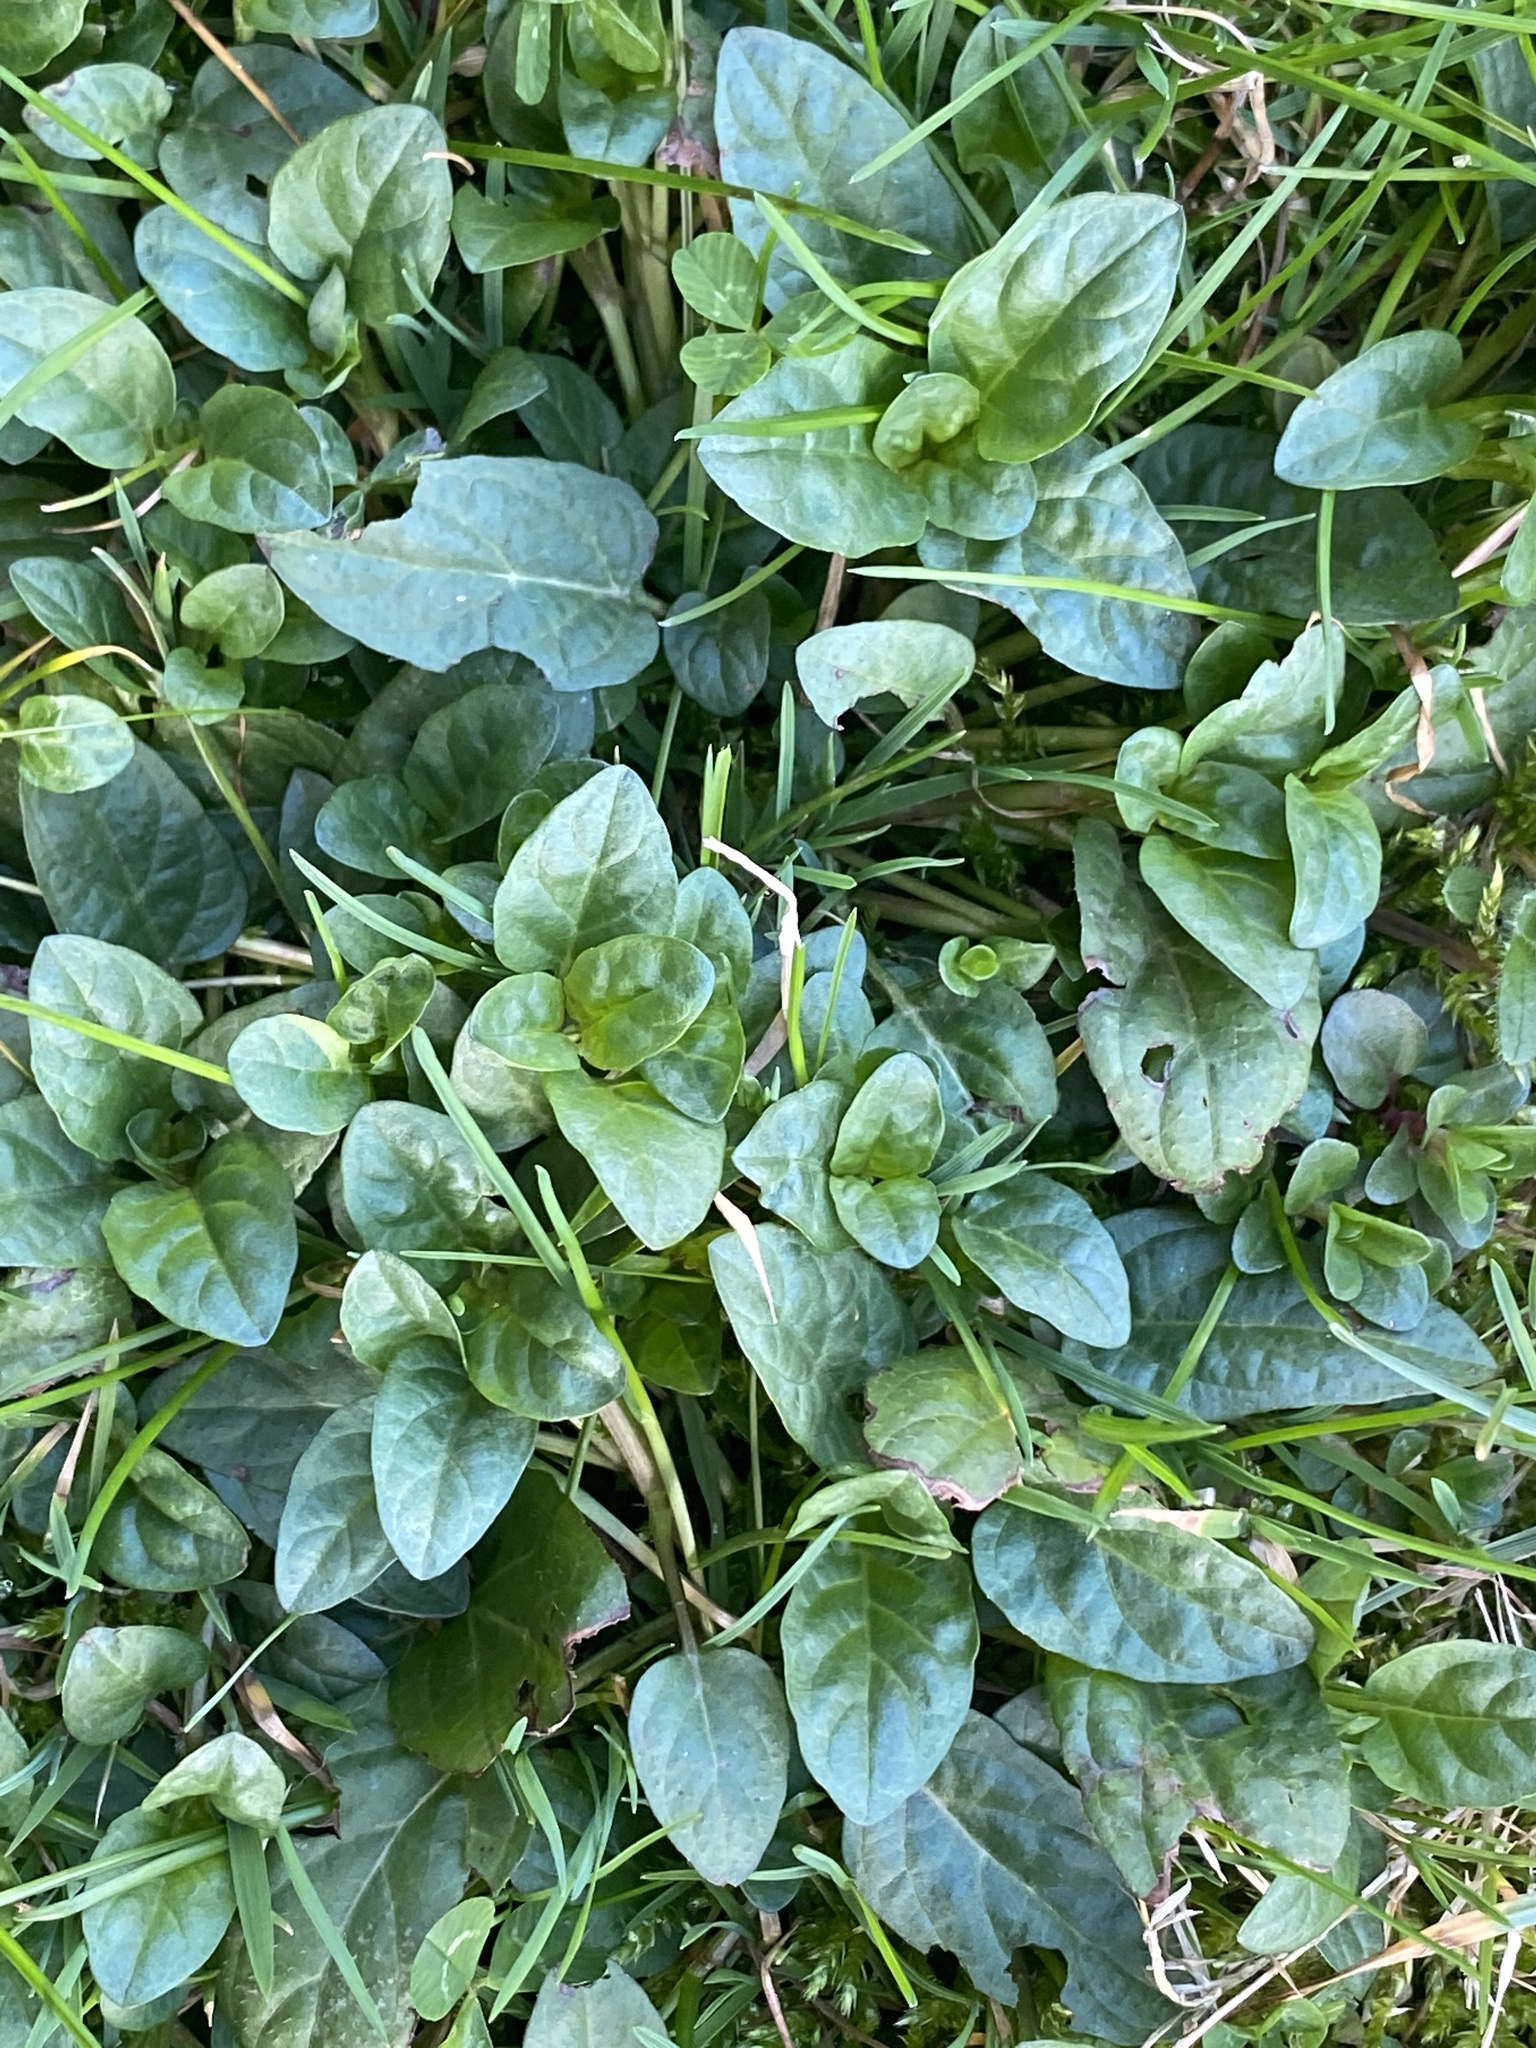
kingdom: Plantae
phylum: Tracheophyta
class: Magnoliopsida
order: Lamiales
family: Lamiaceae
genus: Prunella
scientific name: Prunella vulgaris
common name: Heal-all
